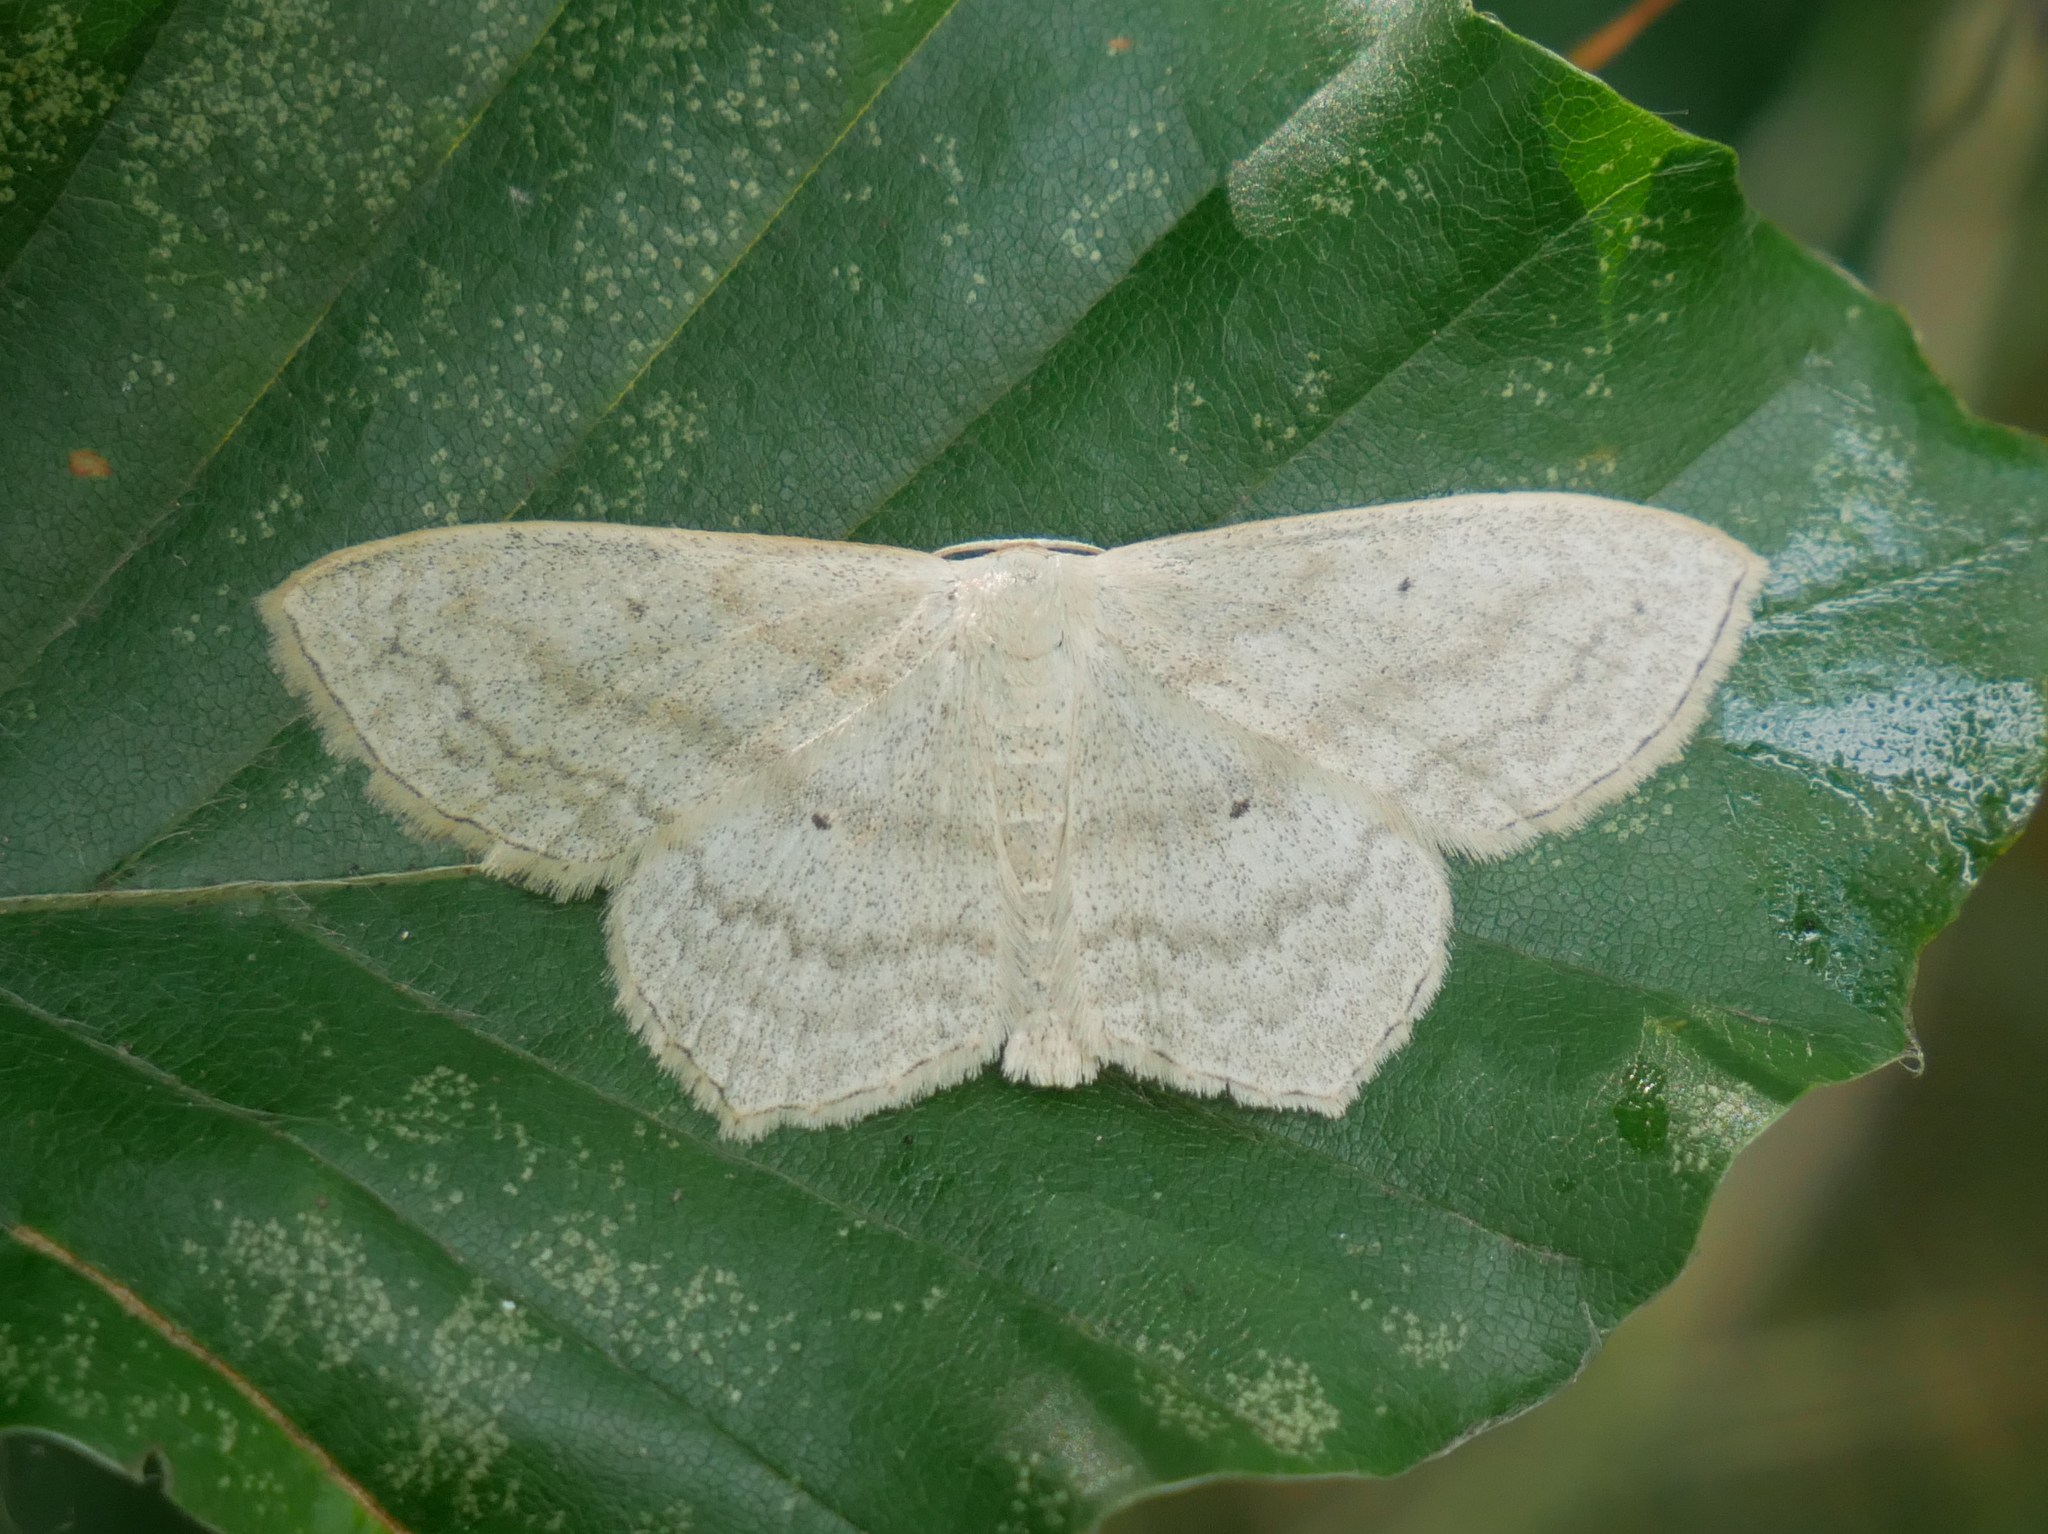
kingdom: Animalia
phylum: Arthropoda
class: Insecta
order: Lepidoptera
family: Geometridae
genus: Scopula
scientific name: Scopula nigropunctata
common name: Sub-angled wave
